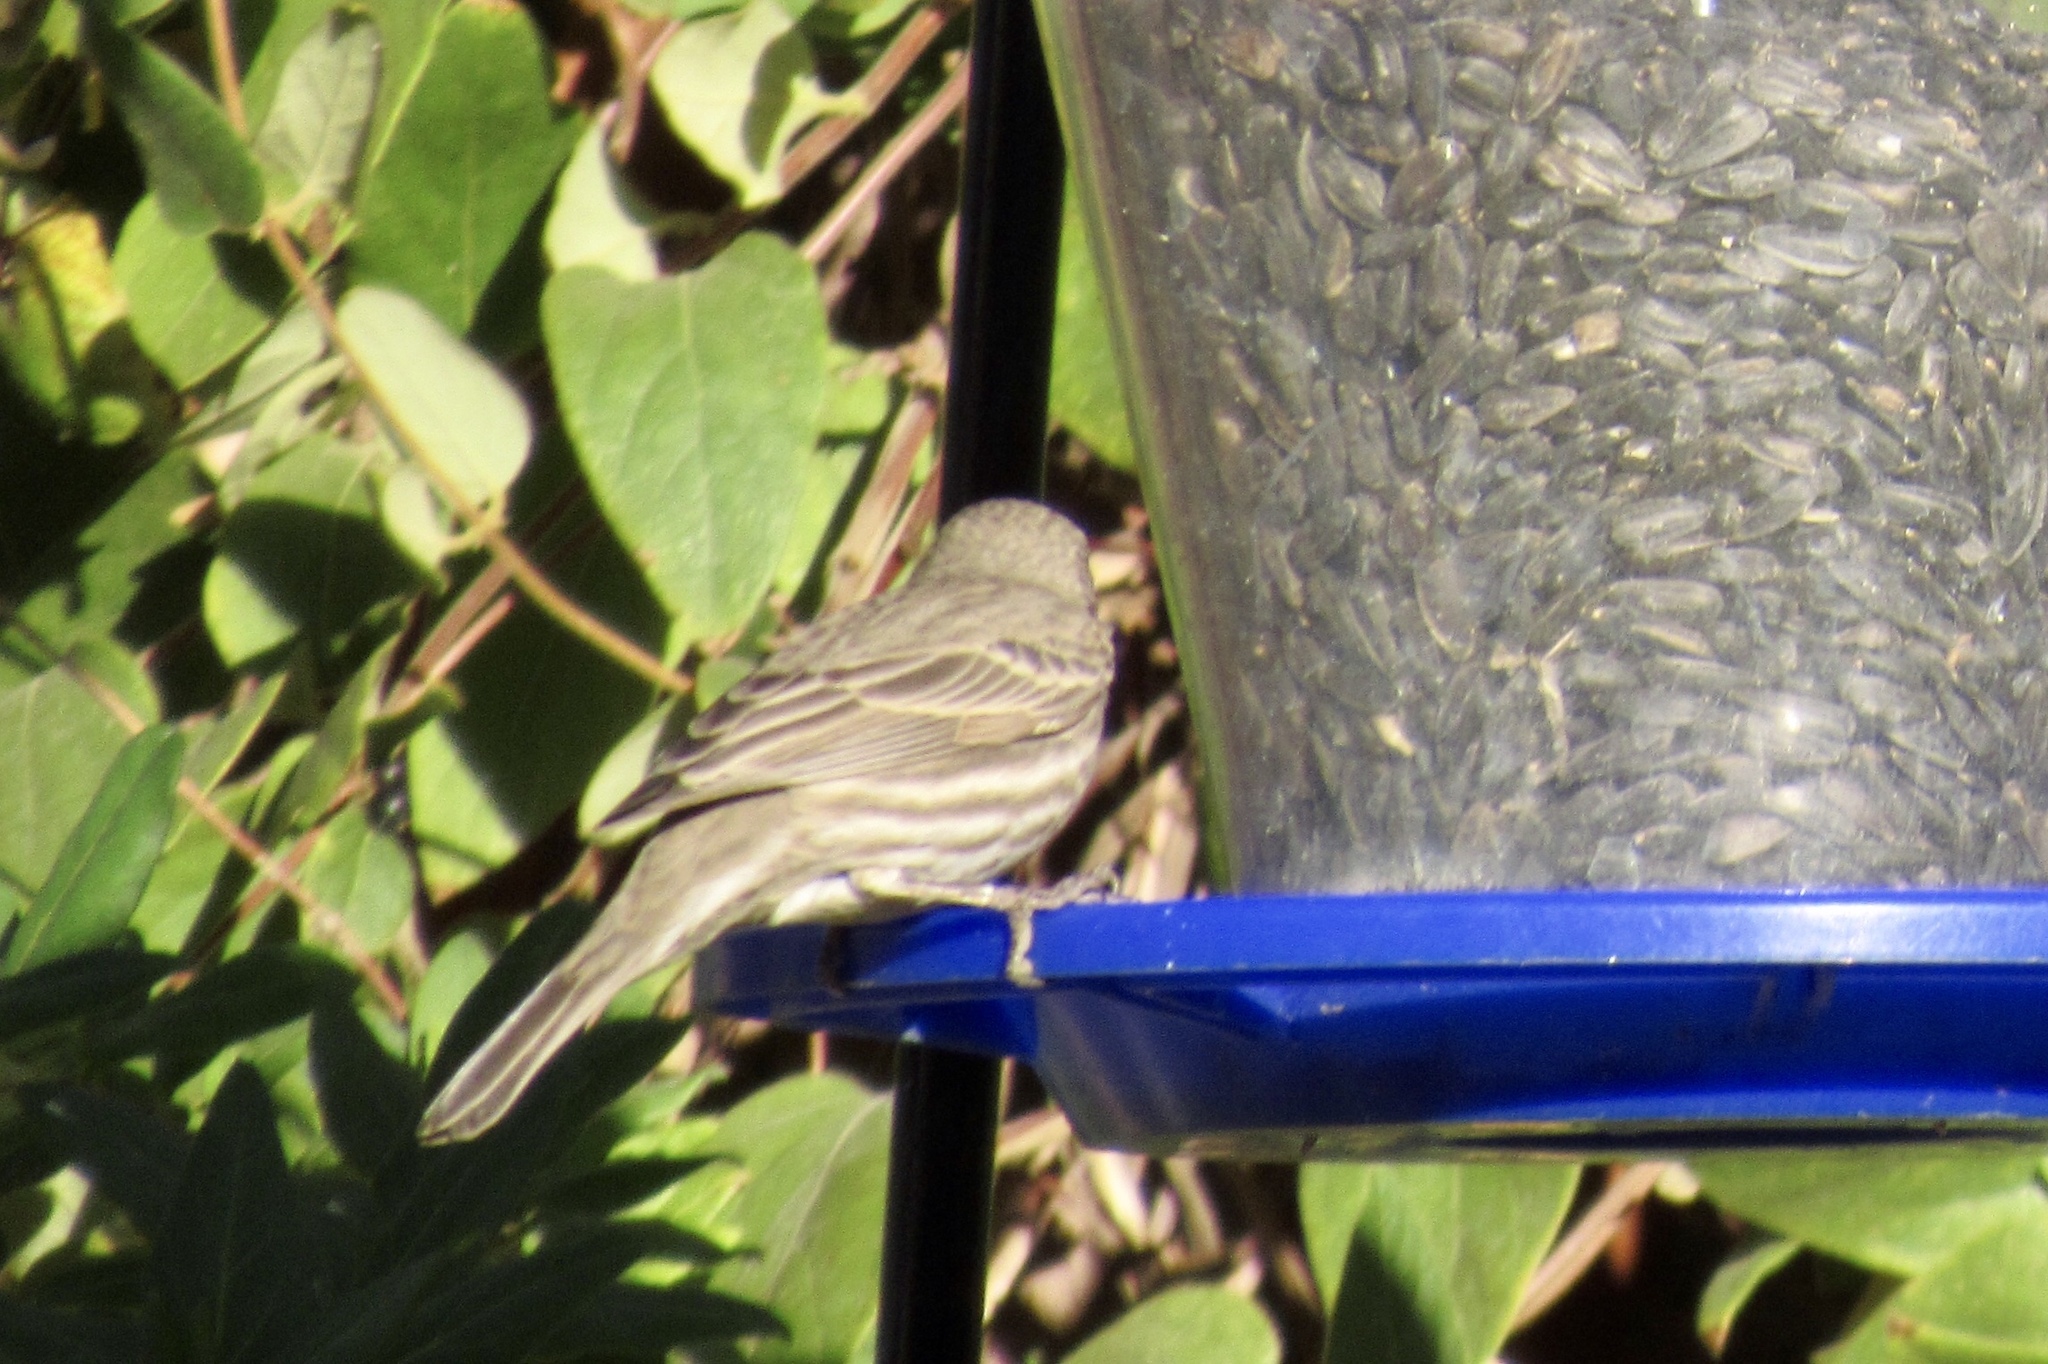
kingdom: Animalia
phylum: Chordata
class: Aves
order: Passeriformes
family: Fringillidae
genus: Haemorhous
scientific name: Haemorhous mexicanus
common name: House finch
